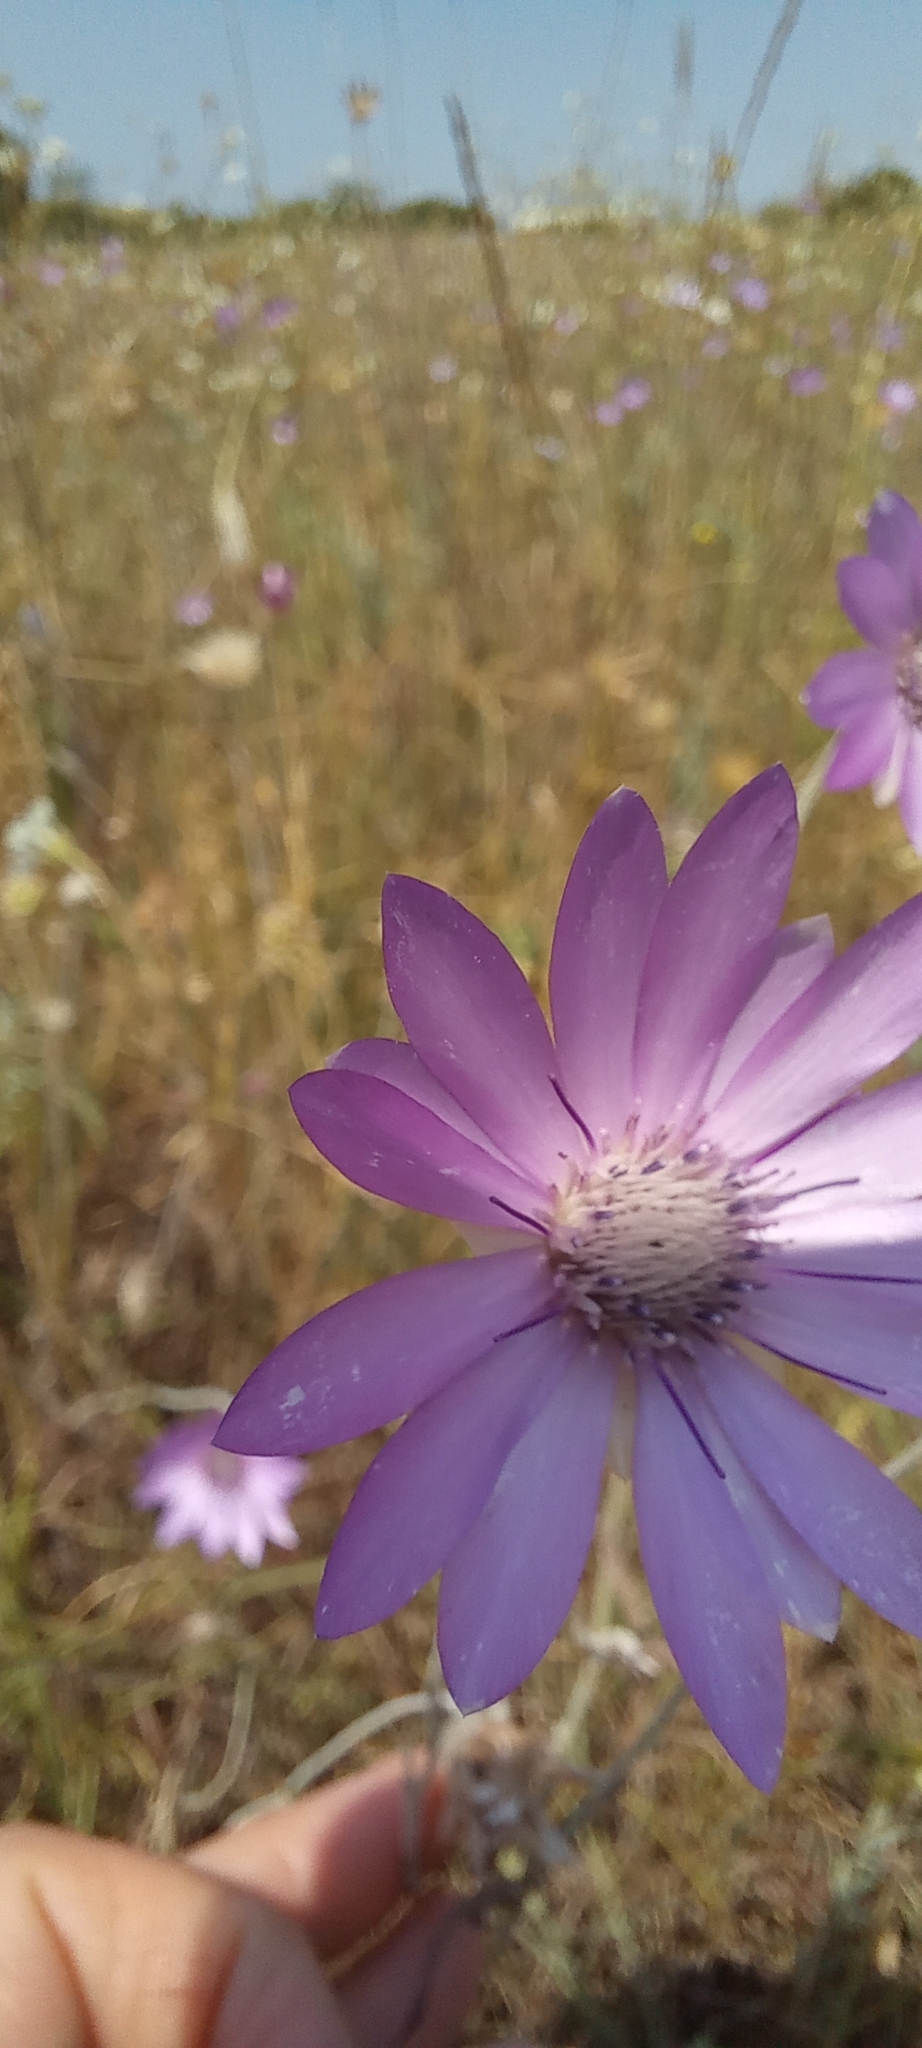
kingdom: Plantae
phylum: Tracheophyta
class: Magnoliopsida
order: Asterales
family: Asteraceae
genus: Xeranthemum
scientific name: Xeranthemum annuum
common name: Immortelle
